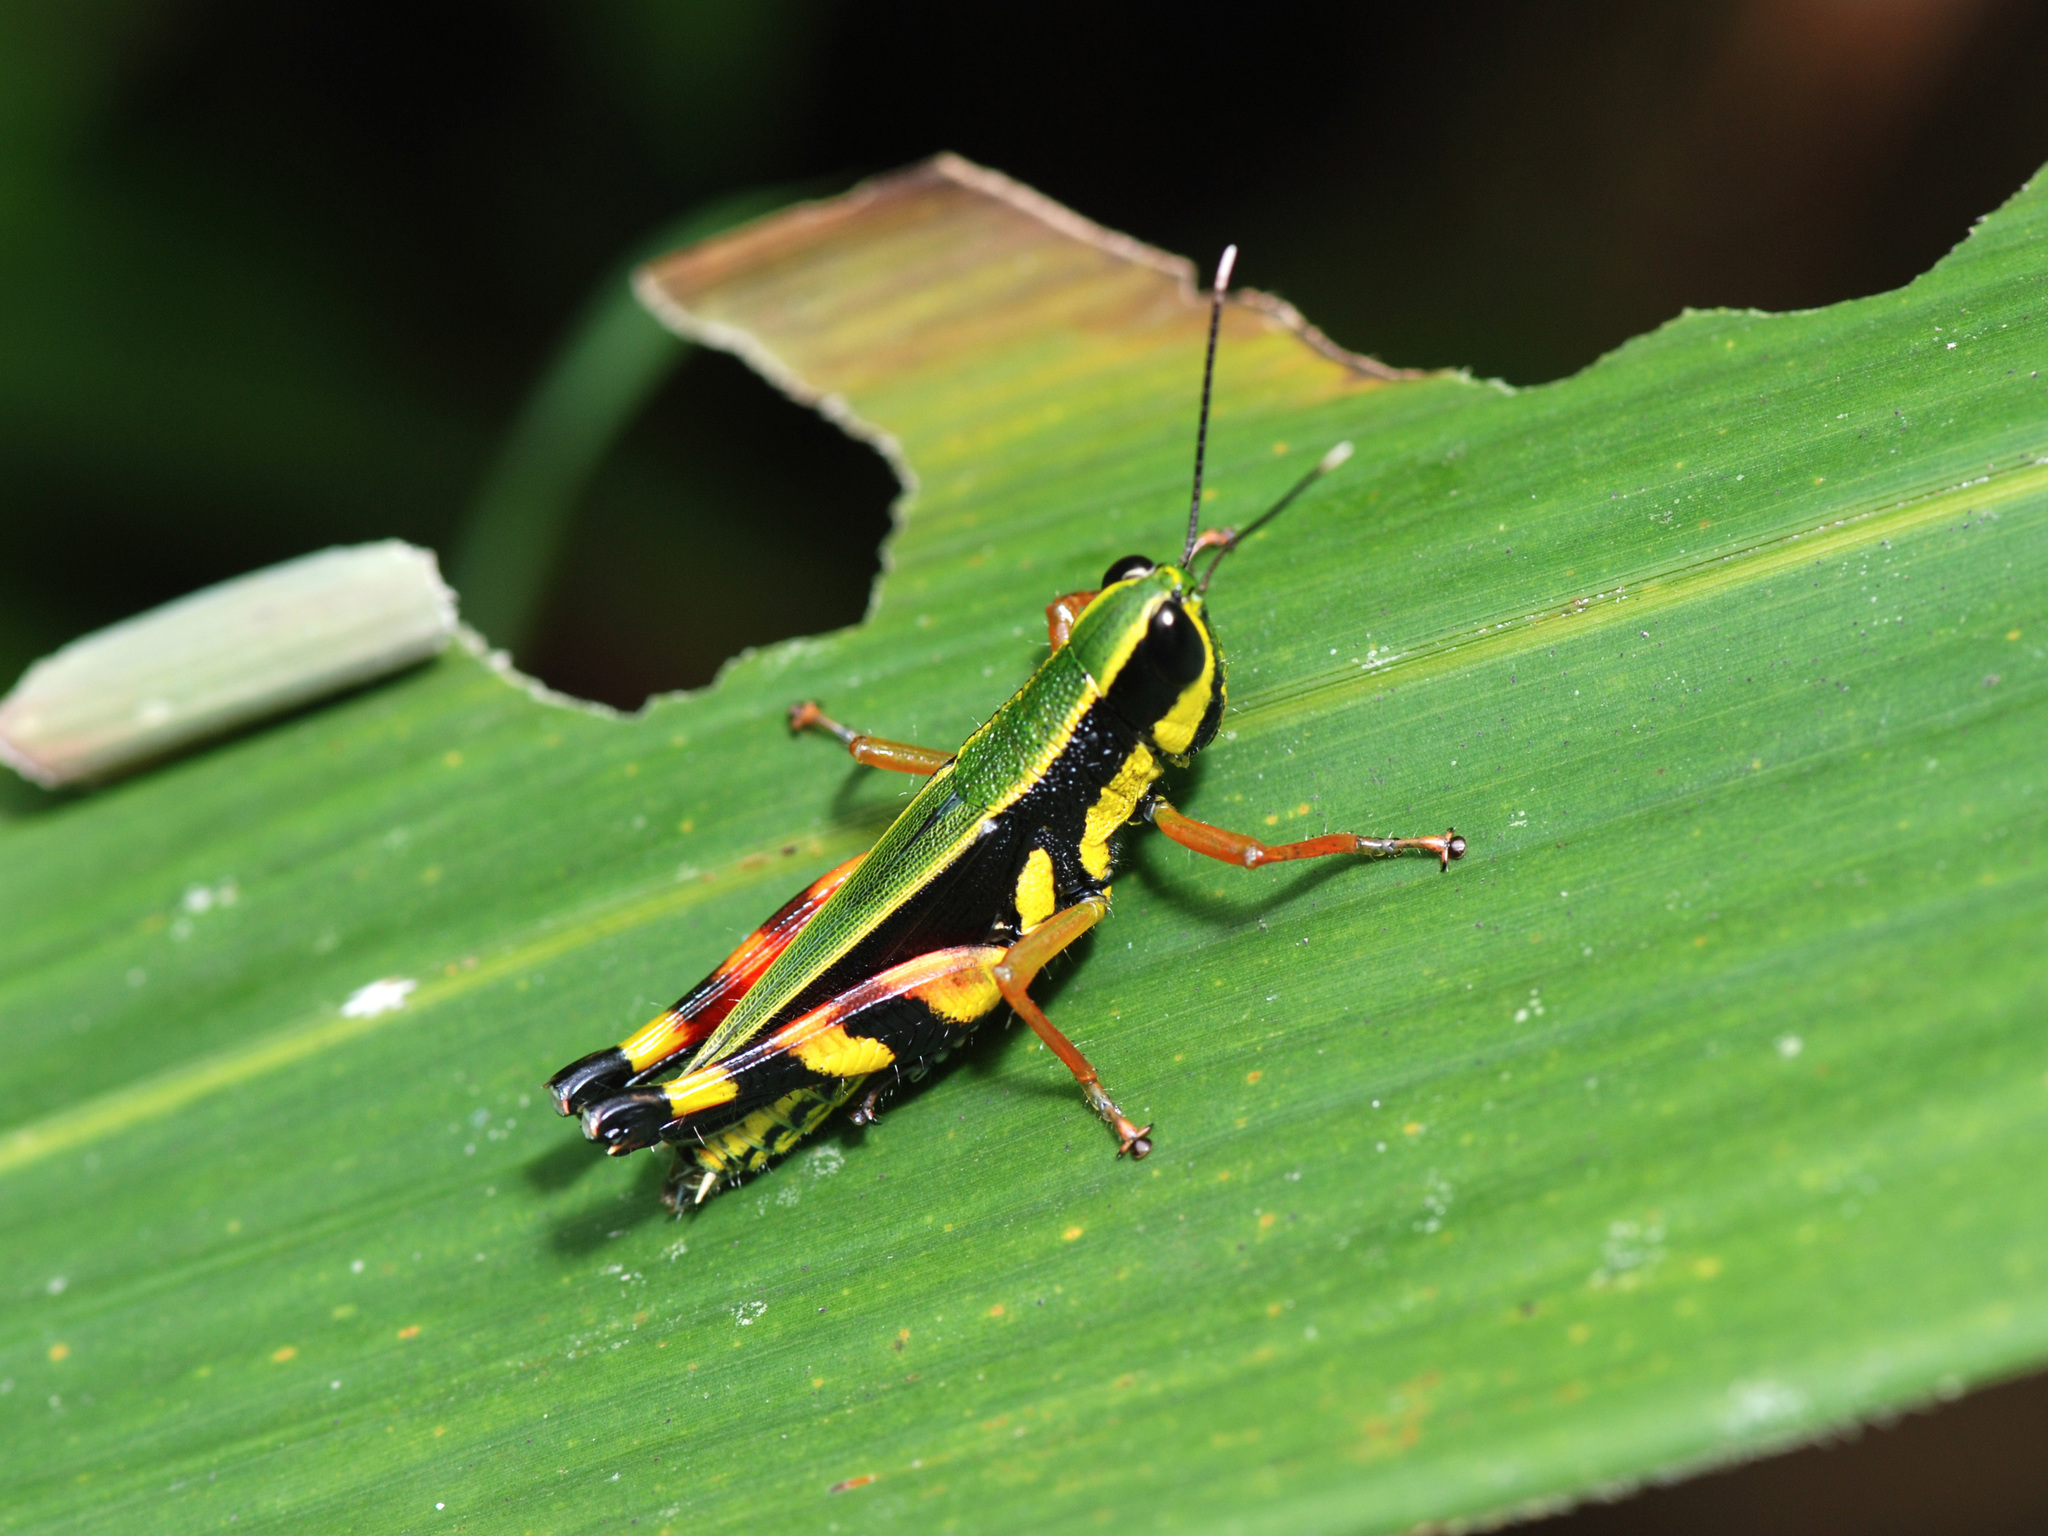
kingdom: Animalia
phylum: Arthropoda
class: Insecta
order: Orthoptera
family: Acrididae
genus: Tauchira
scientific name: Tauchira polychroa
